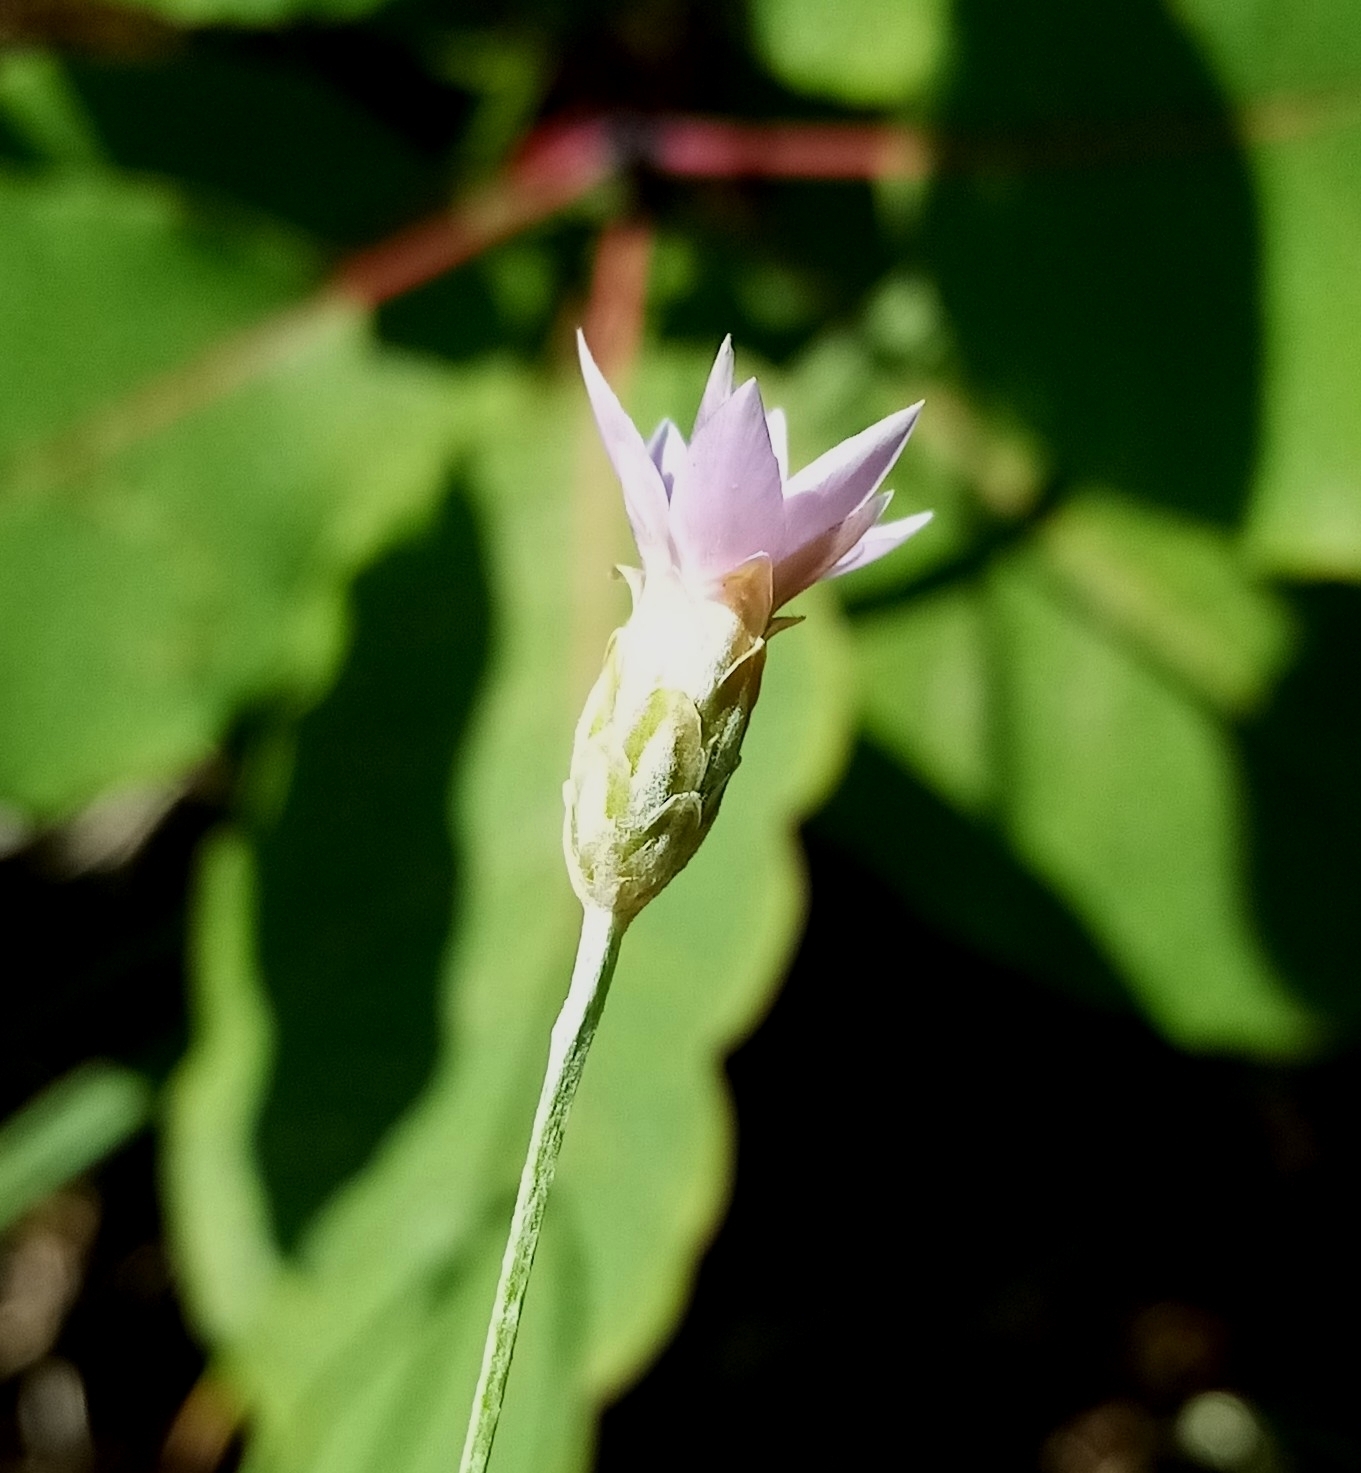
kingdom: Plantae
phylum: Tracheophyta
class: Magnoliopsida
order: Asterales
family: Asteraceae
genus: Xeranthemum
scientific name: Xeranthemum cylindraceum
